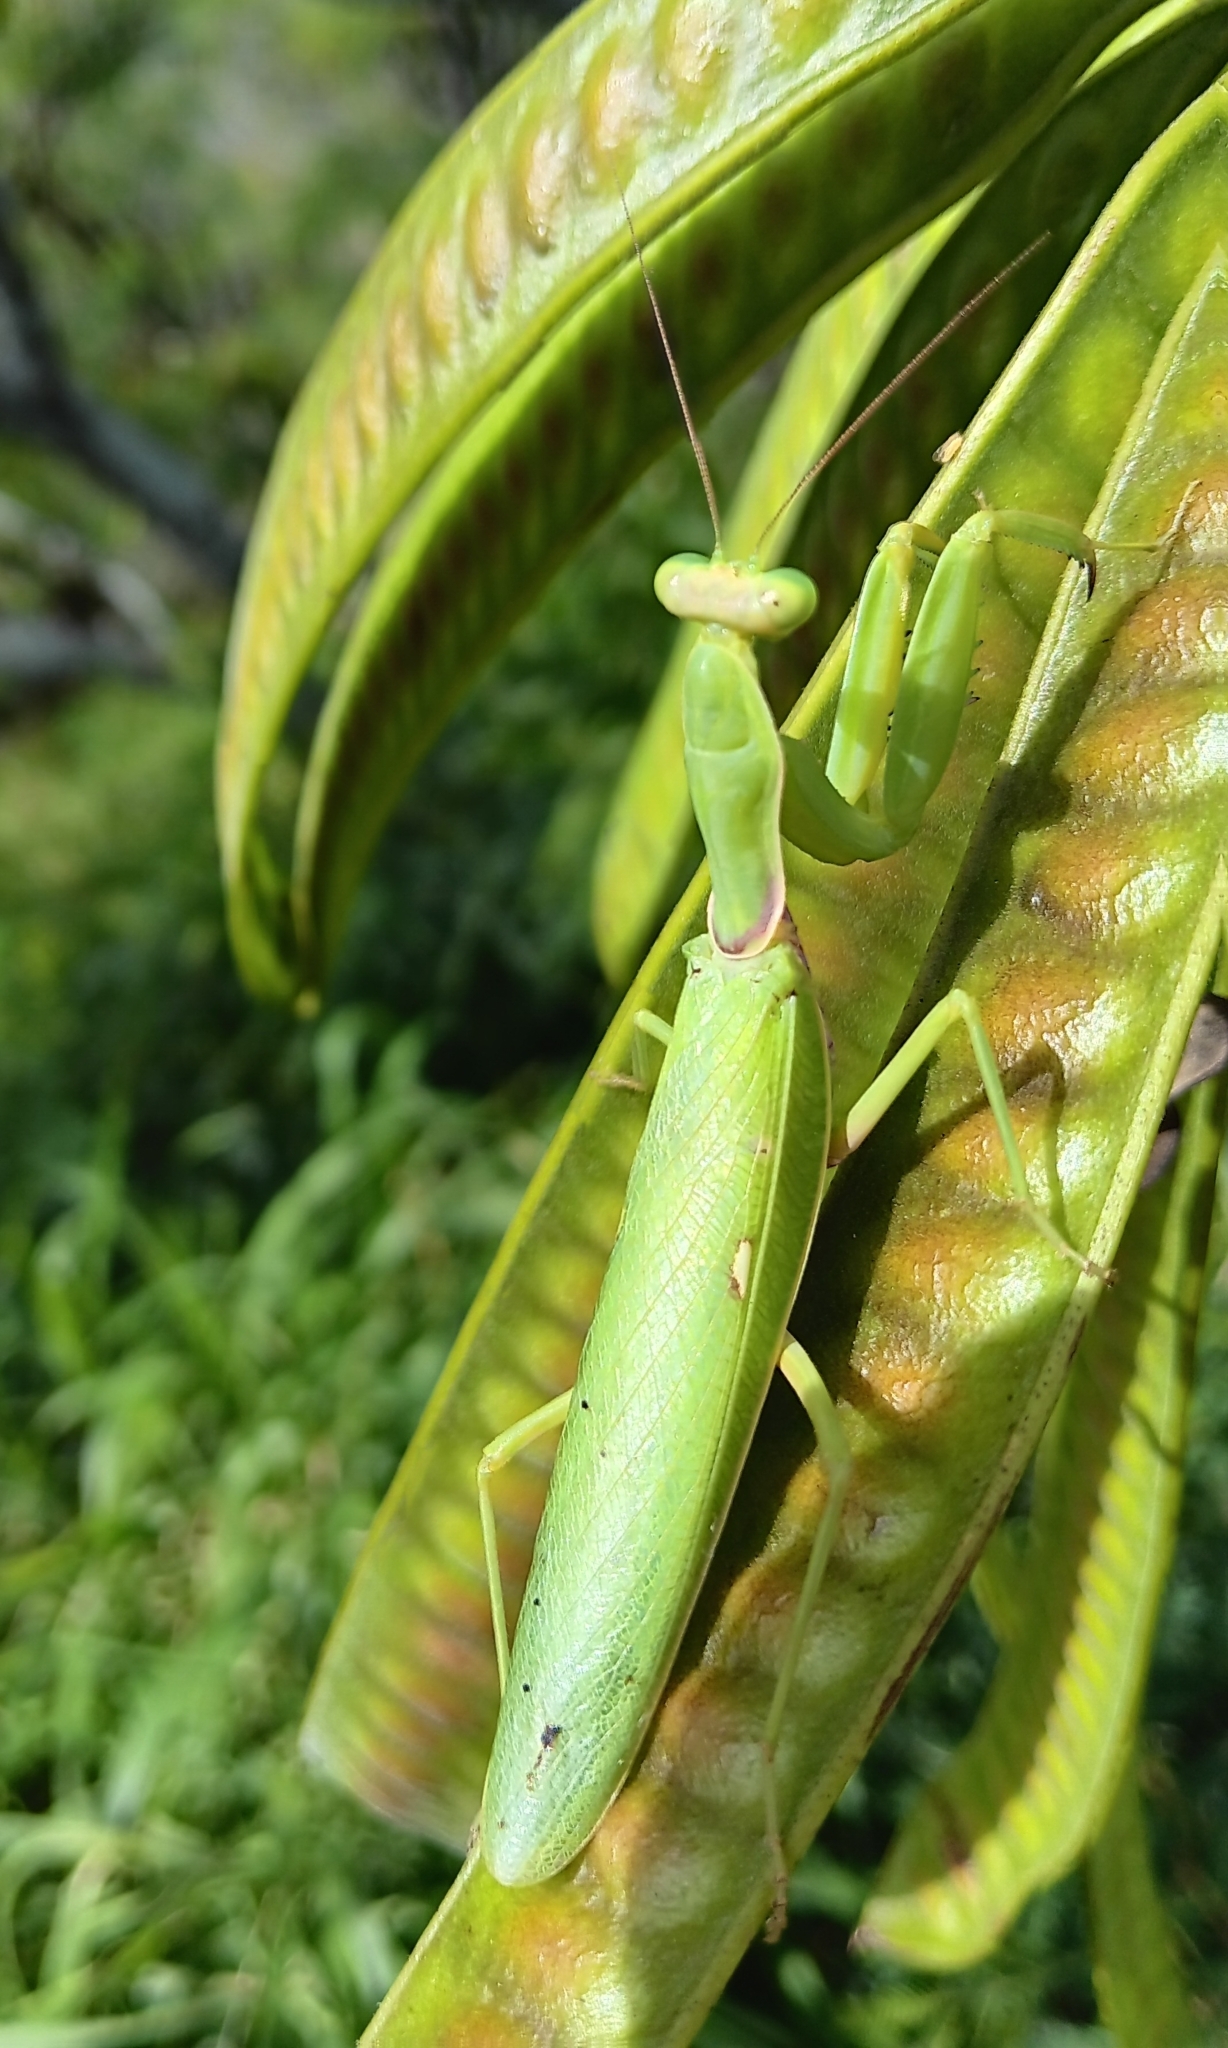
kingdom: Animalia
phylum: Arthropoda
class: Insecta
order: Mantodea
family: Mantidae
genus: Hierodula
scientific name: Hierodula patellifera
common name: Asian mantis
